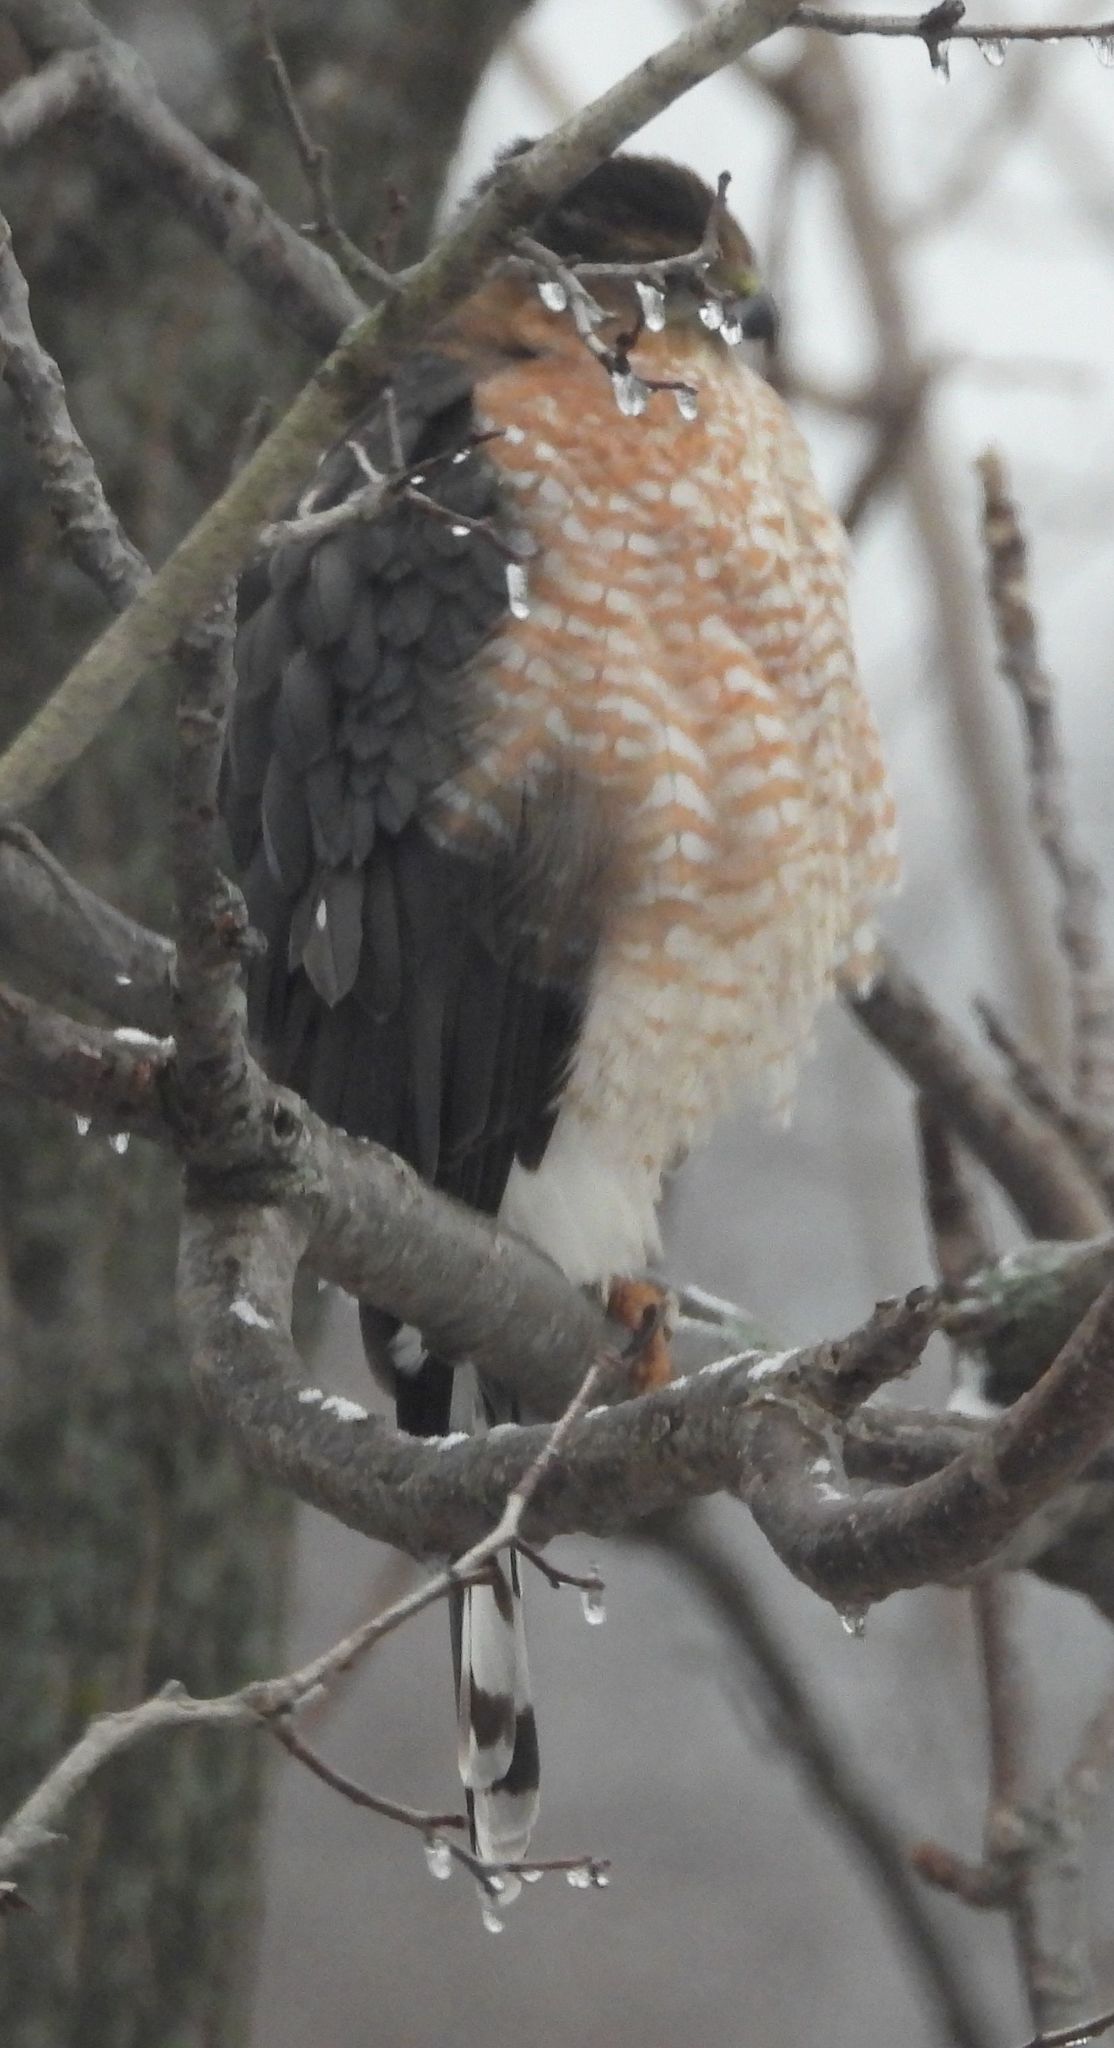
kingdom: Animalia
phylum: Chordata
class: Aves
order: Accipitriformes
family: Accipitridae
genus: Accipiter
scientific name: Accipiter cooperii
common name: Cooper's hawk
